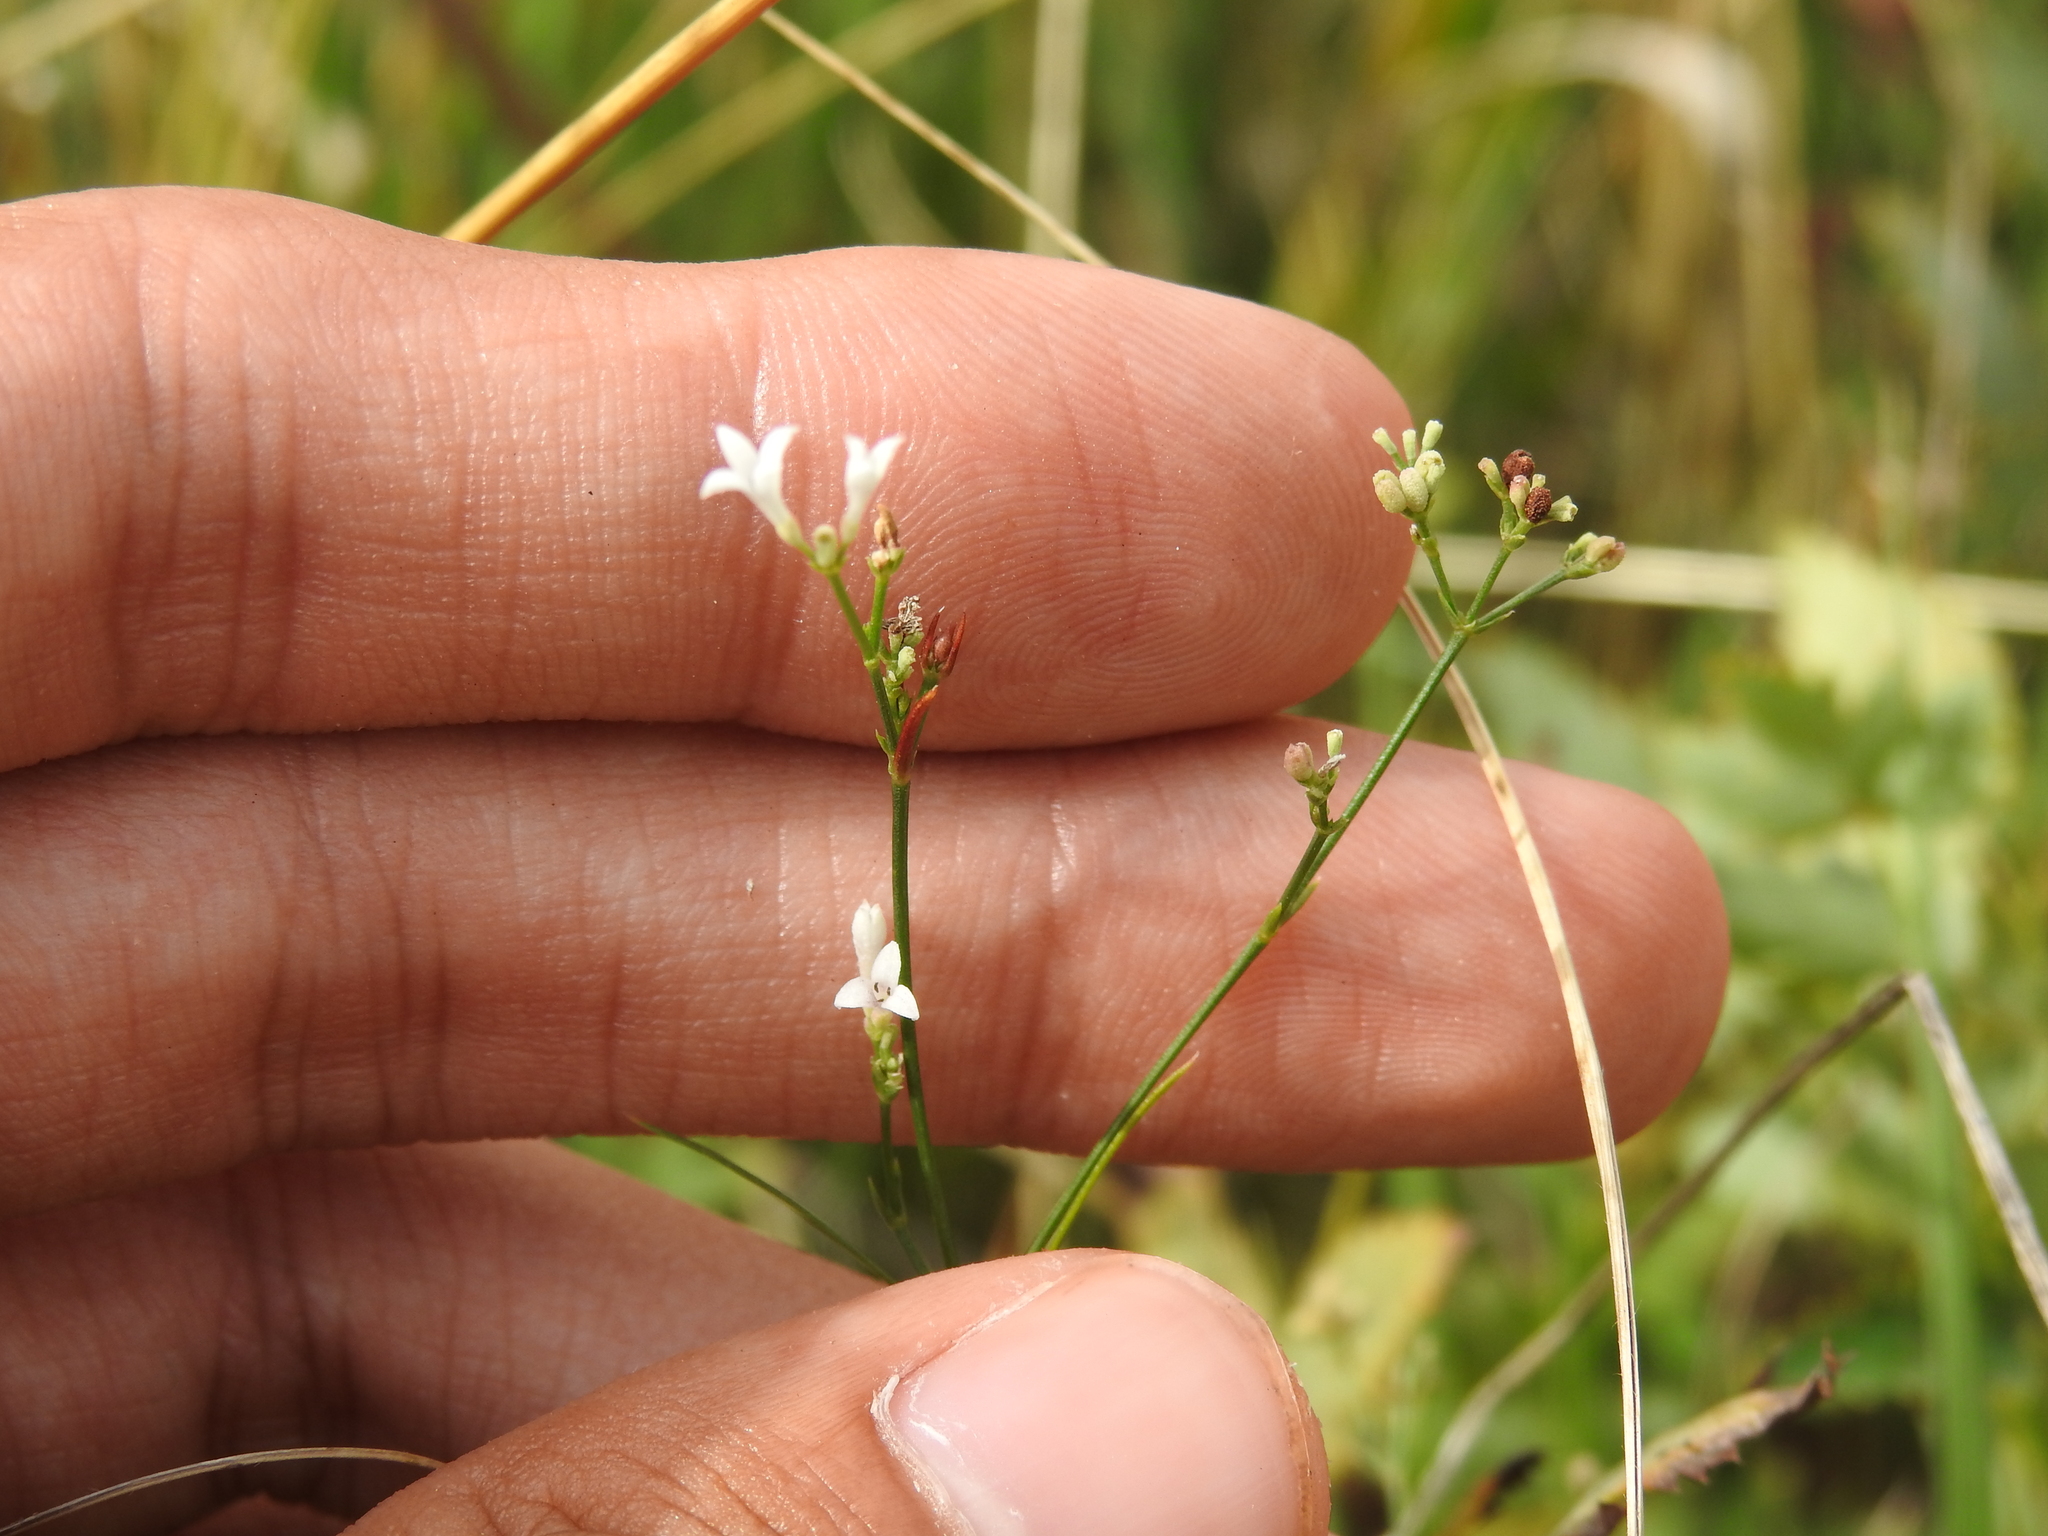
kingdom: Plantae
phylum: Tracheophyta
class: Magnoliopsida
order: Gentianales
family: Rubiaceae
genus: Cynanchica
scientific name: Cynanchica pyrenaica
